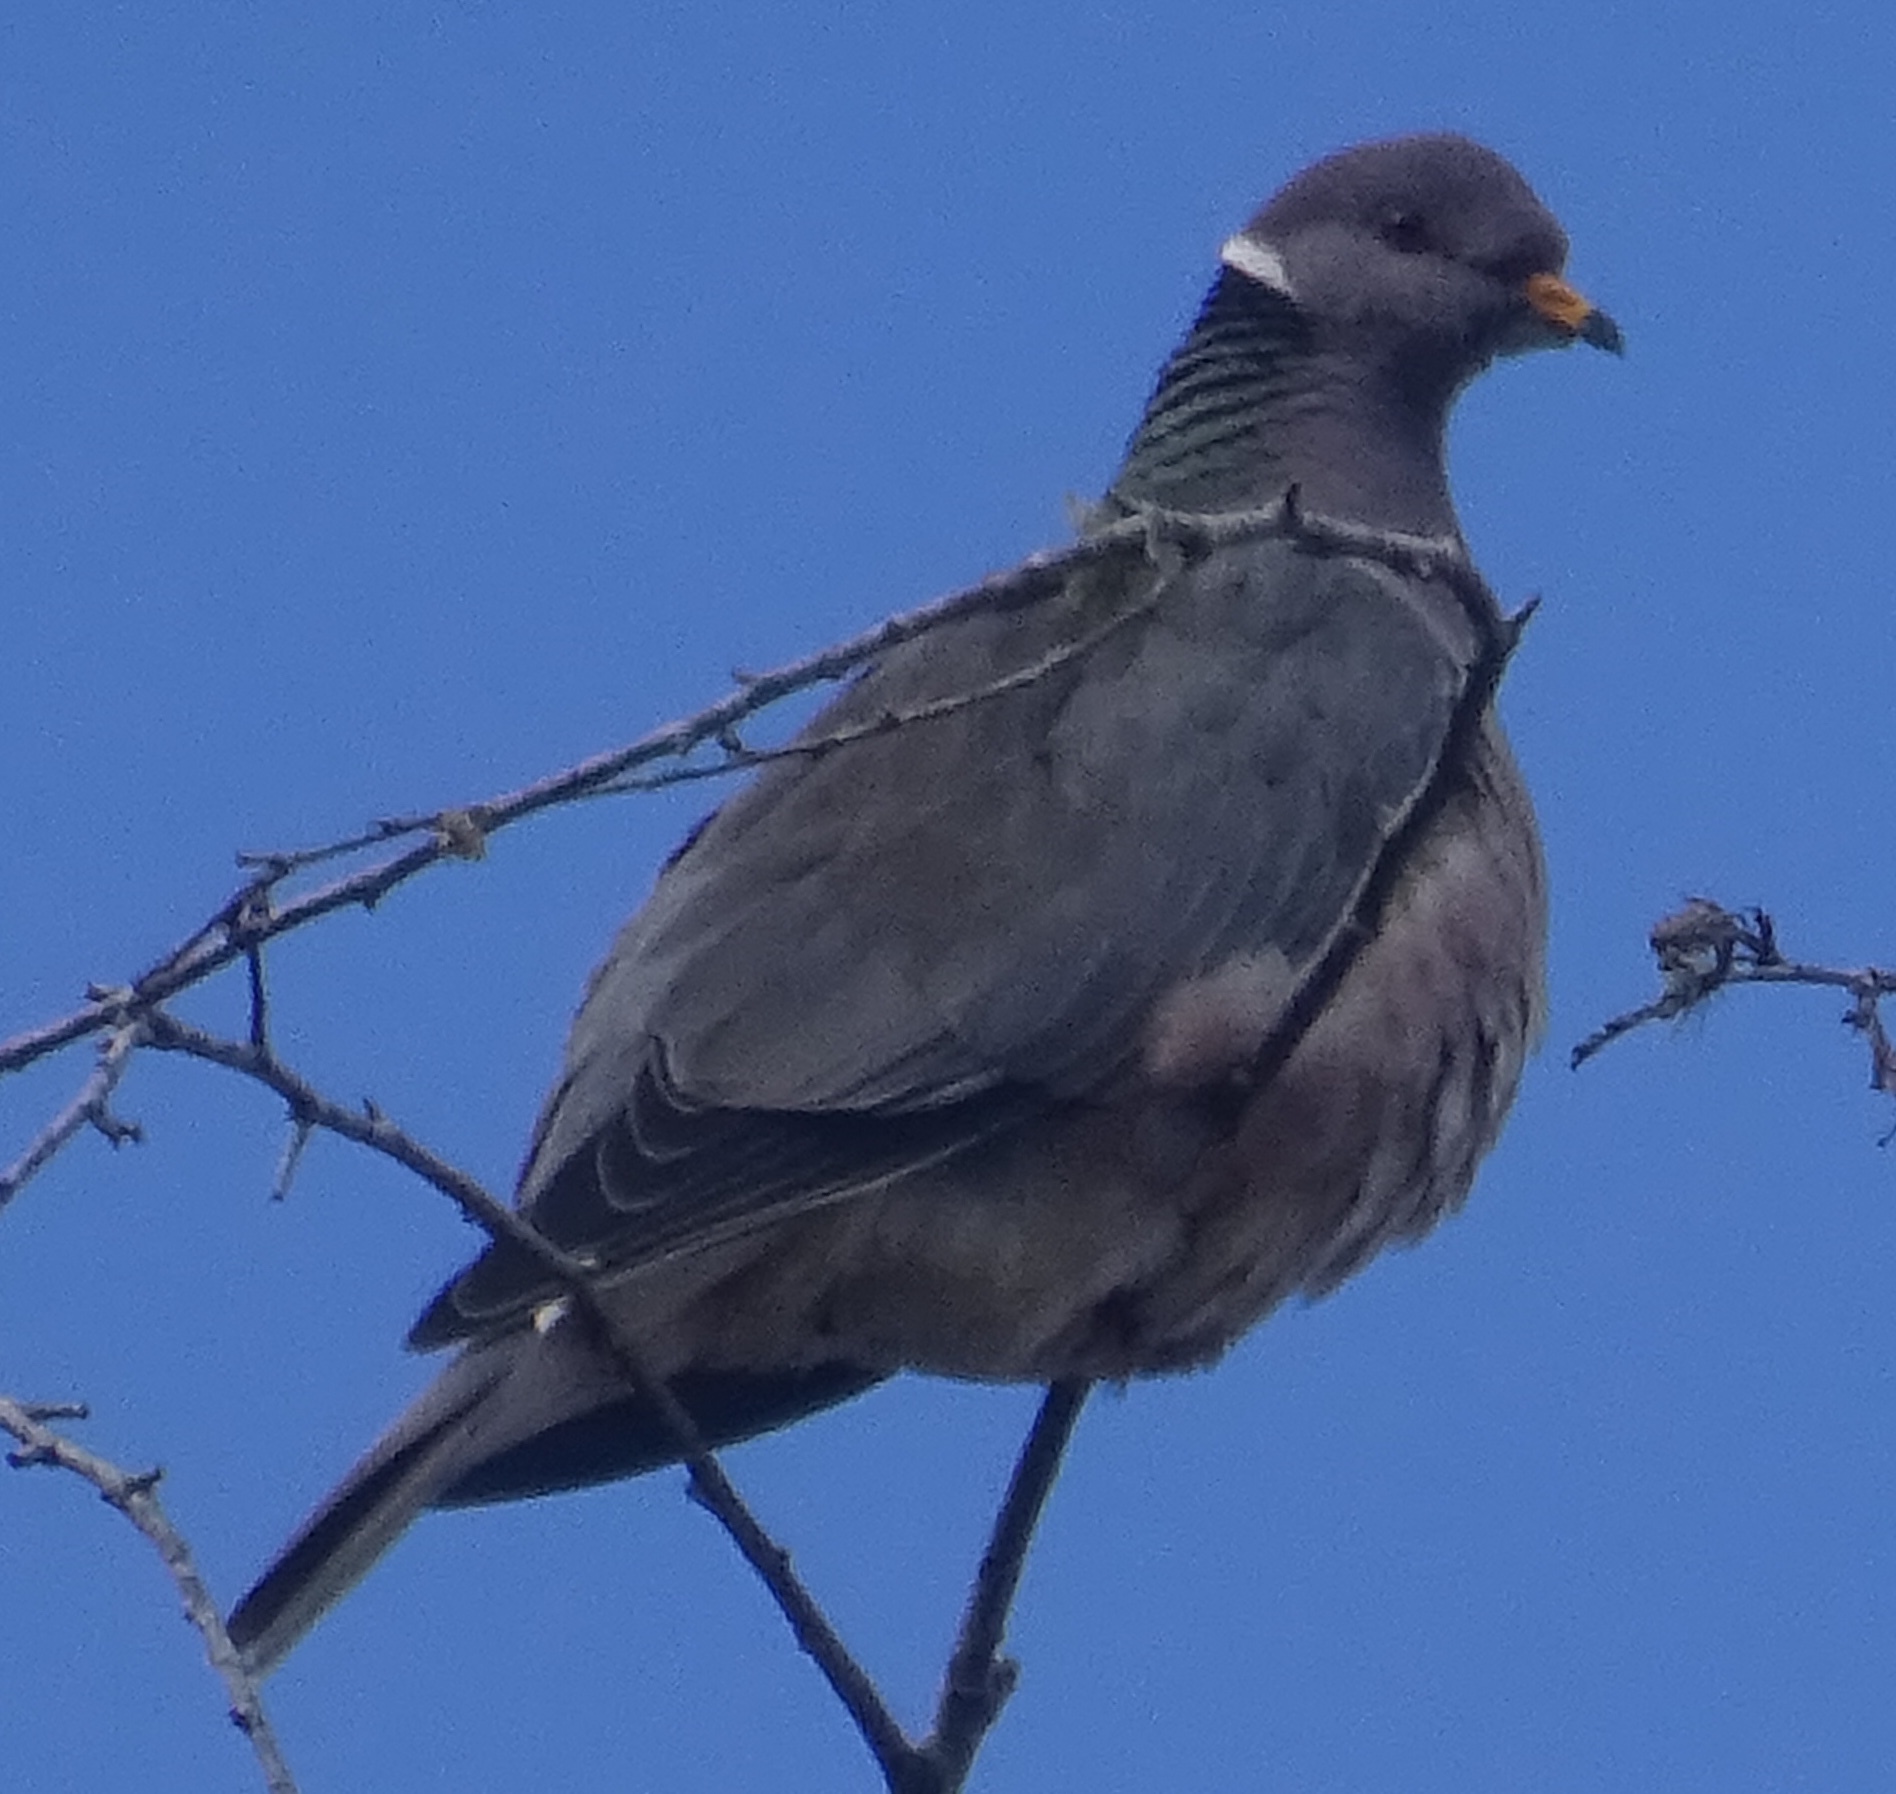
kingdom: Animalia
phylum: Chordata
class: Aves
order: Columbiformes
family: Columbidae
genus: Patagioenas
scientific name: Patagioenas fasciata
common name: Band-tailed pigeon
